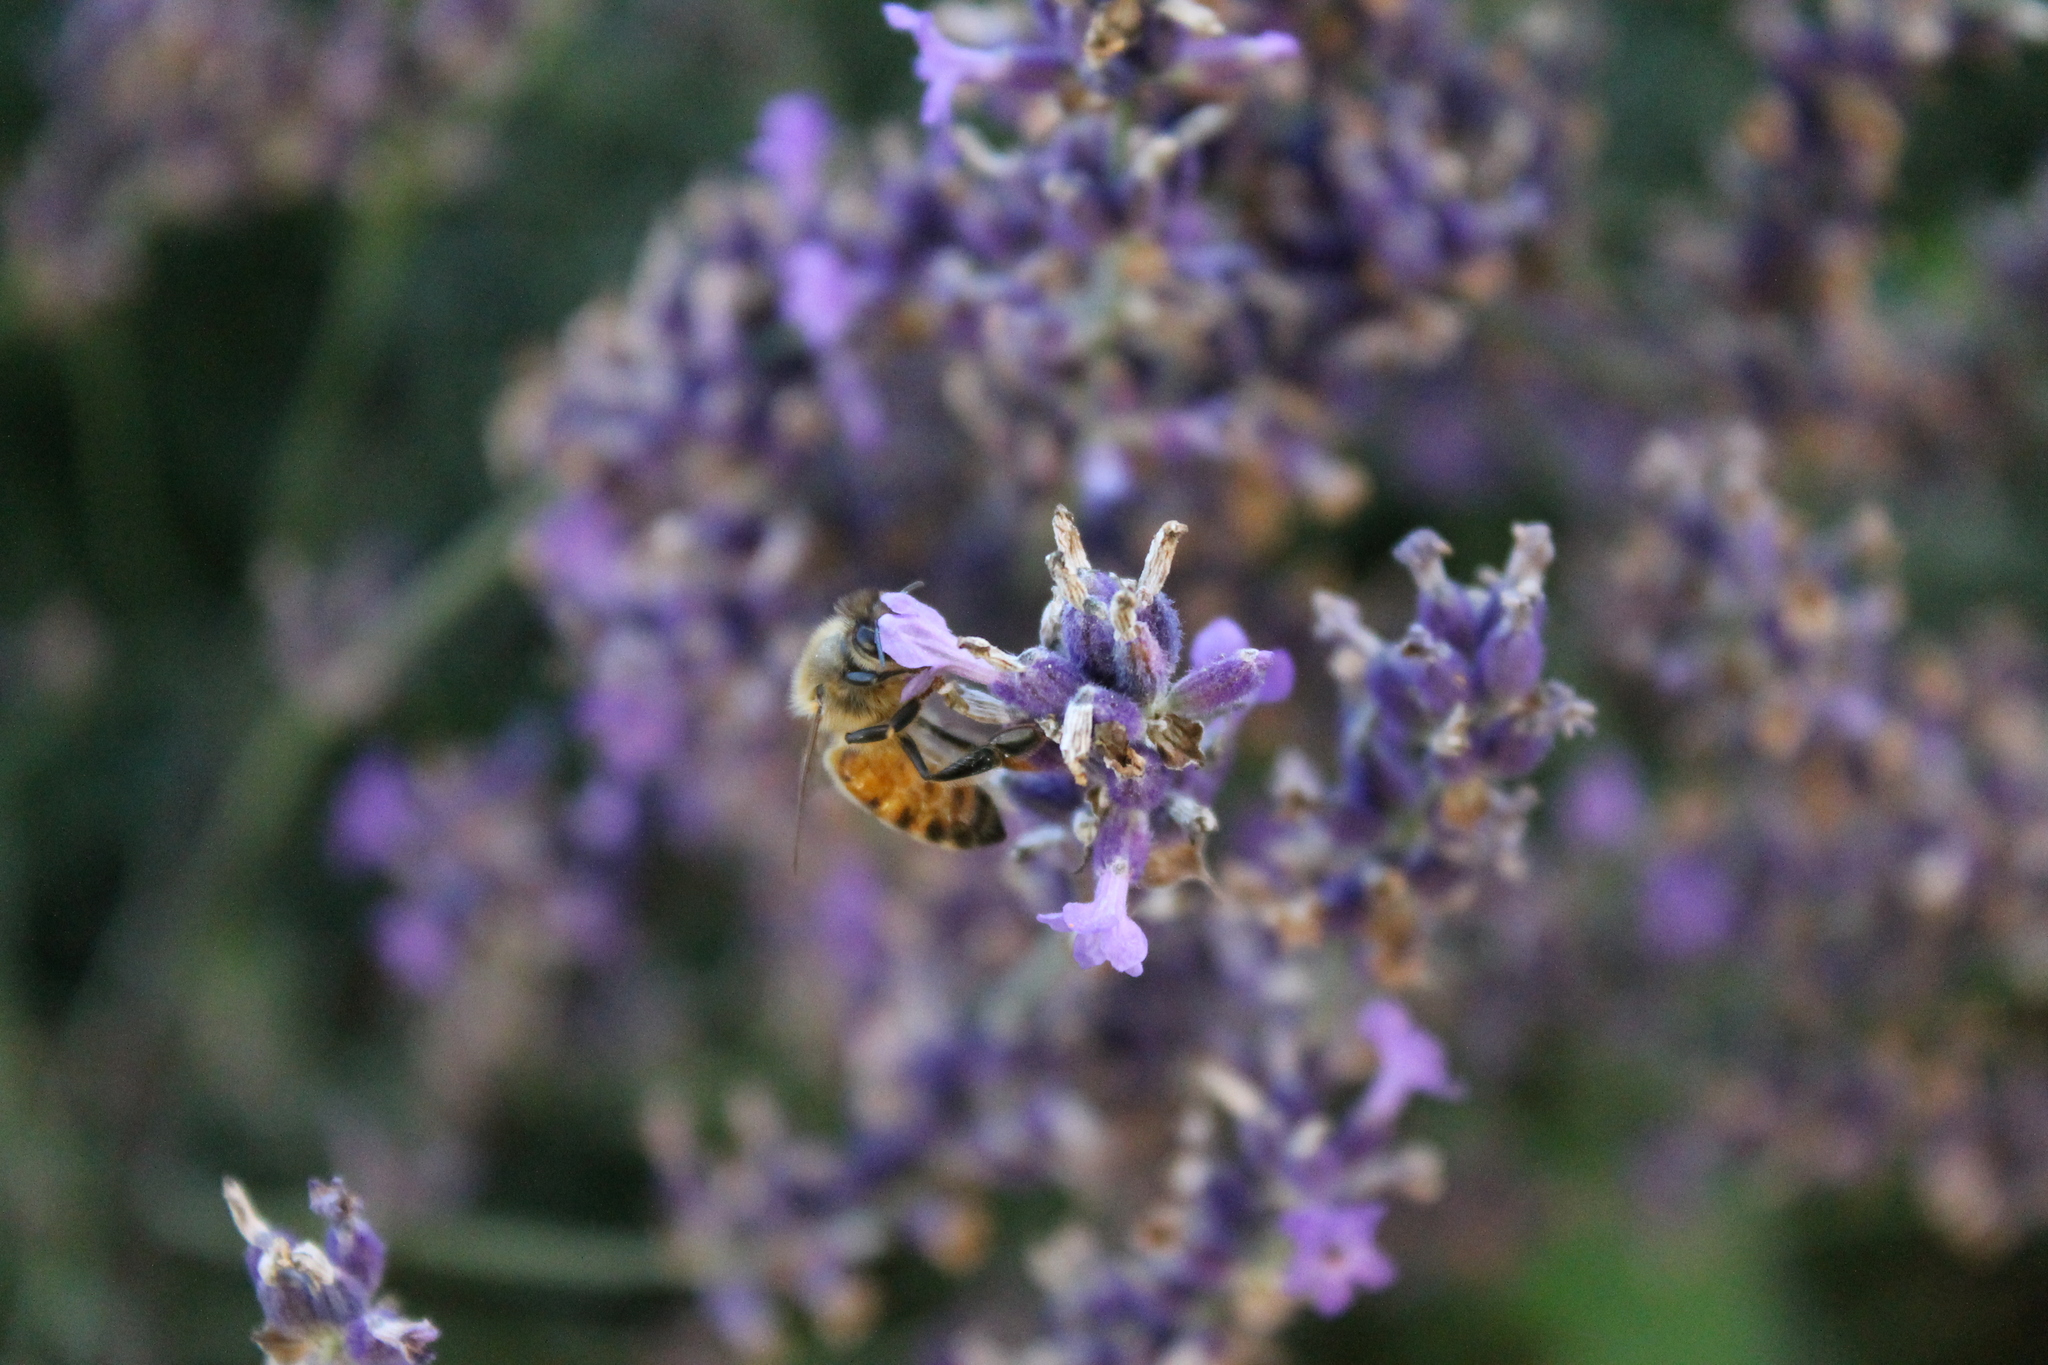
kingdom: Animalia
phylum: Arthropoda
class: Insecta
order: Hymenoptera
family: Apidae
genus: Apis
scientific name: Apis mellifera
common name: Honey bee
